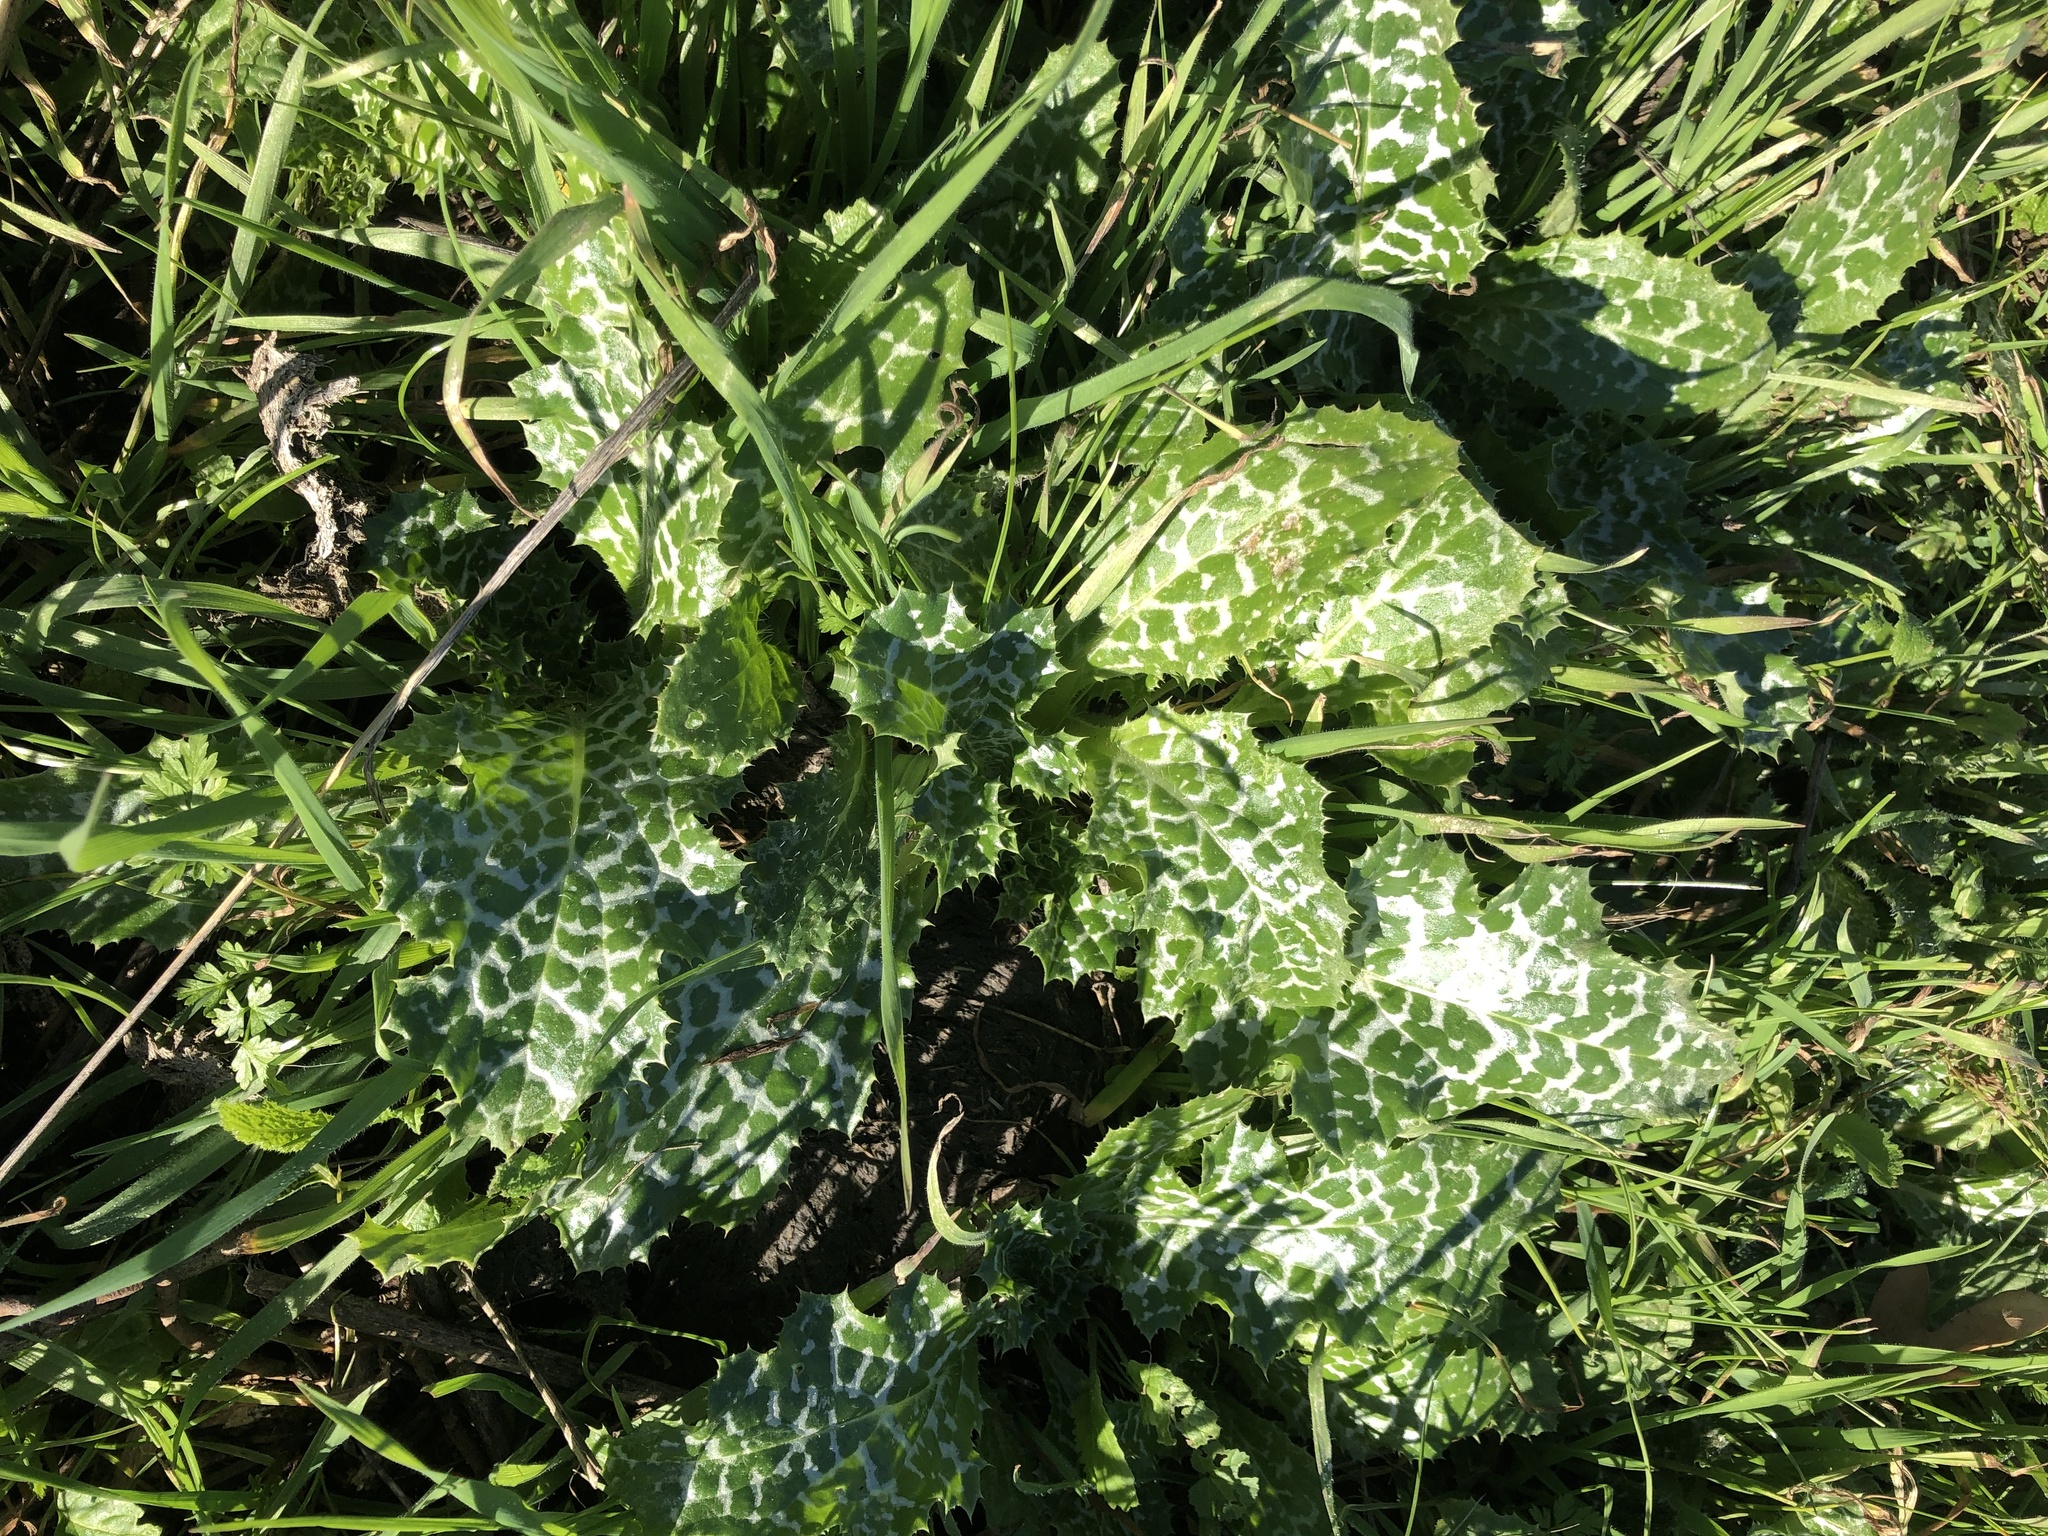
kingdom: Plantae
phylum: Tracheophyta
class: Magnoliopsida
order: Asterales
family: Asteraceae
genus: Silybum
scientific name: Silybum marianum
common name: Milk thistle
